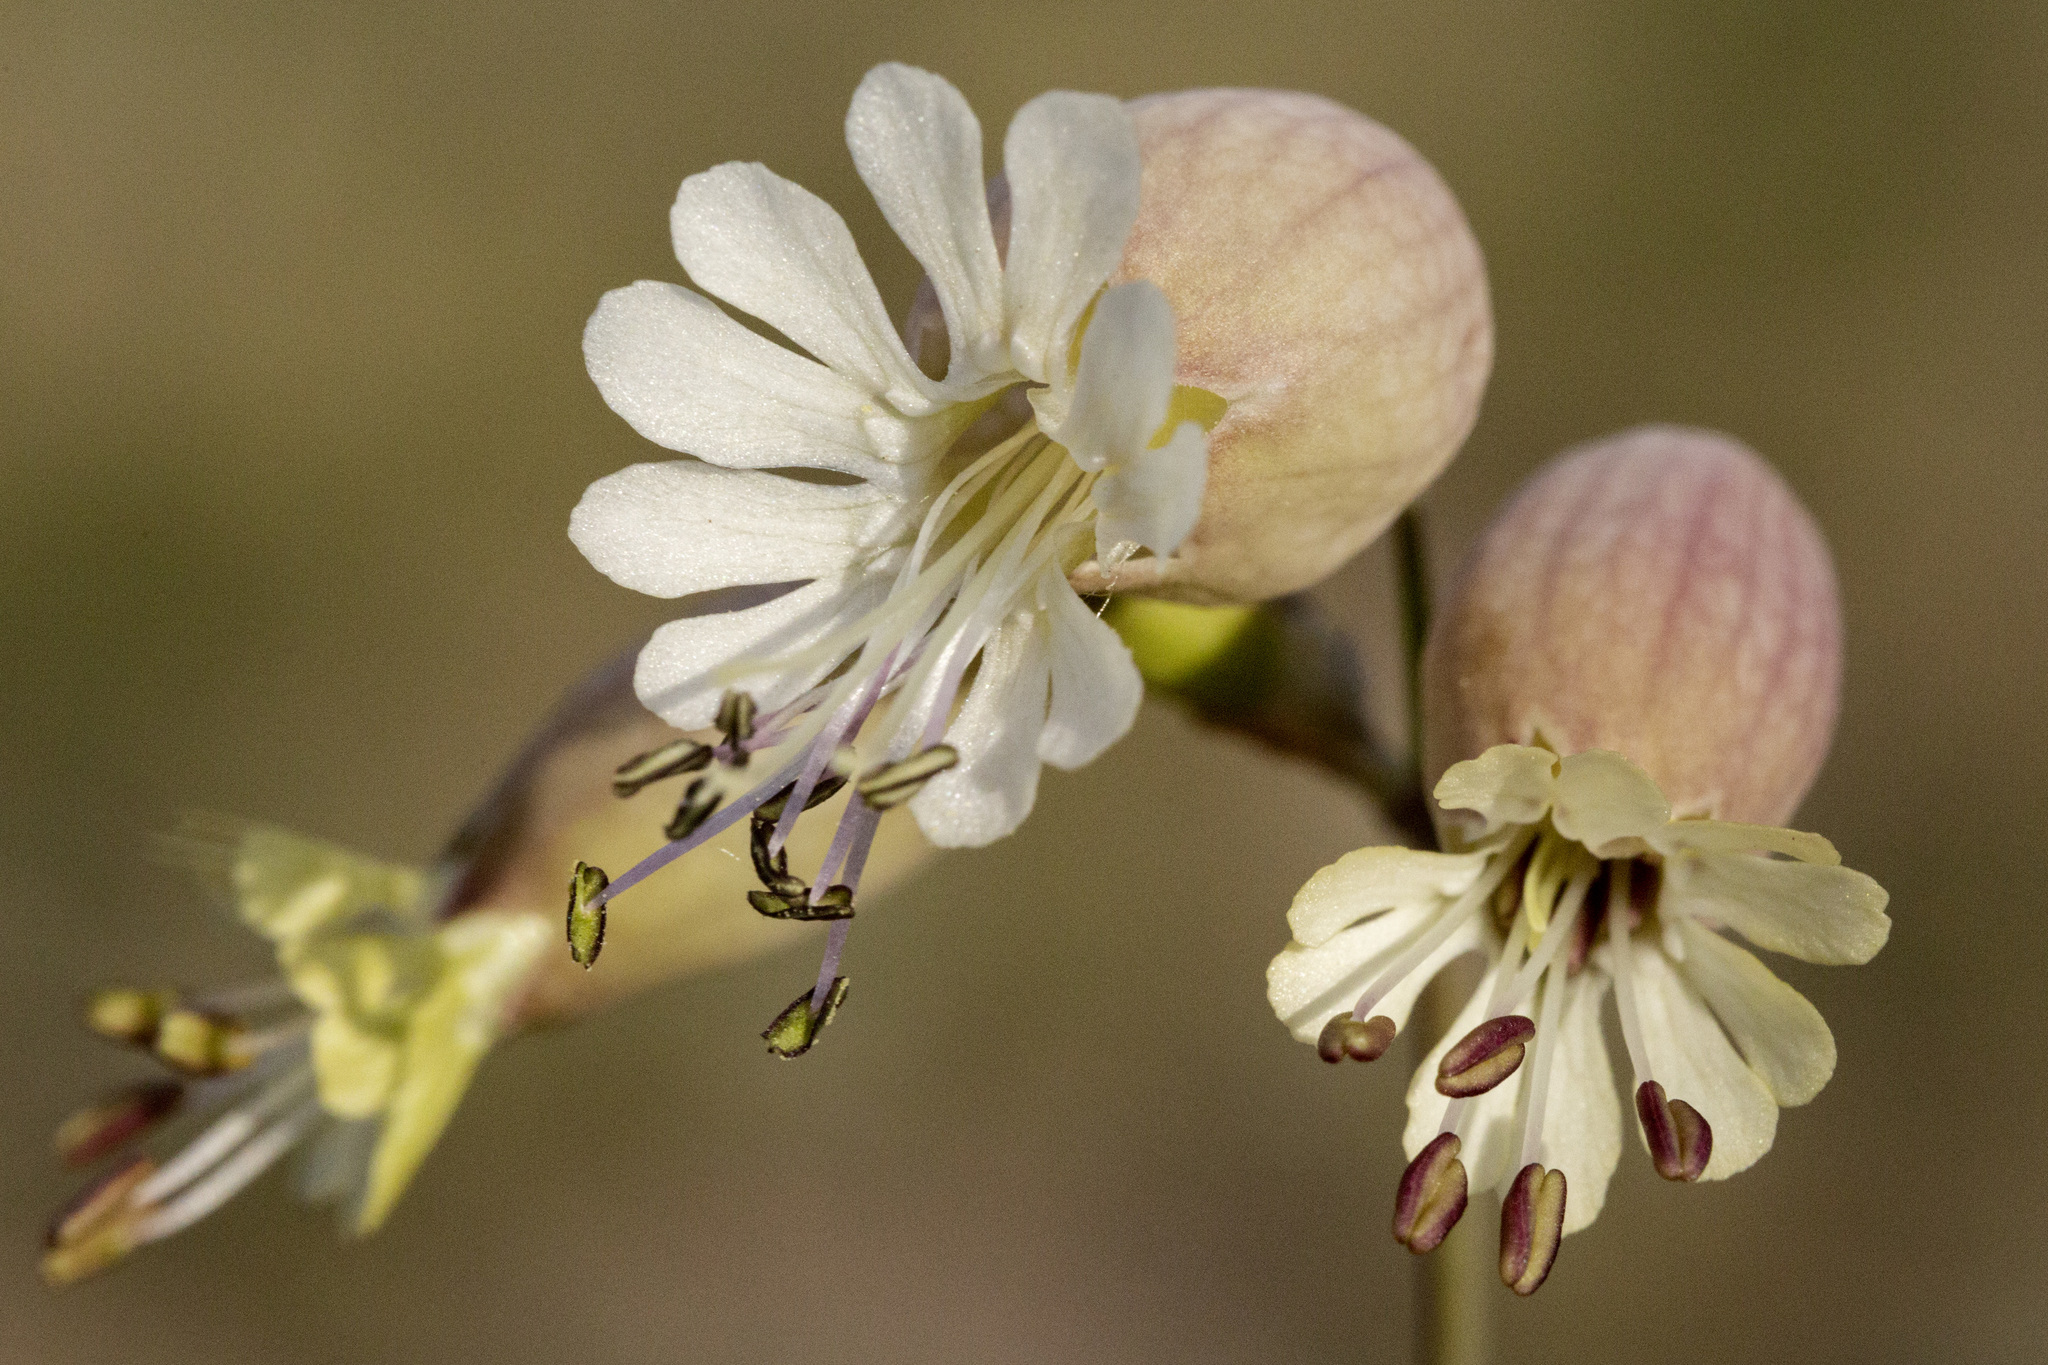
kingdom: Plantae
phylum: Tracheophyta
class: Magnoliopsida
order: Caryophyllales
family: Caryophyllaceae
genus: Silene
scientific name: Silene vulgaris
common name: Bladder campion
